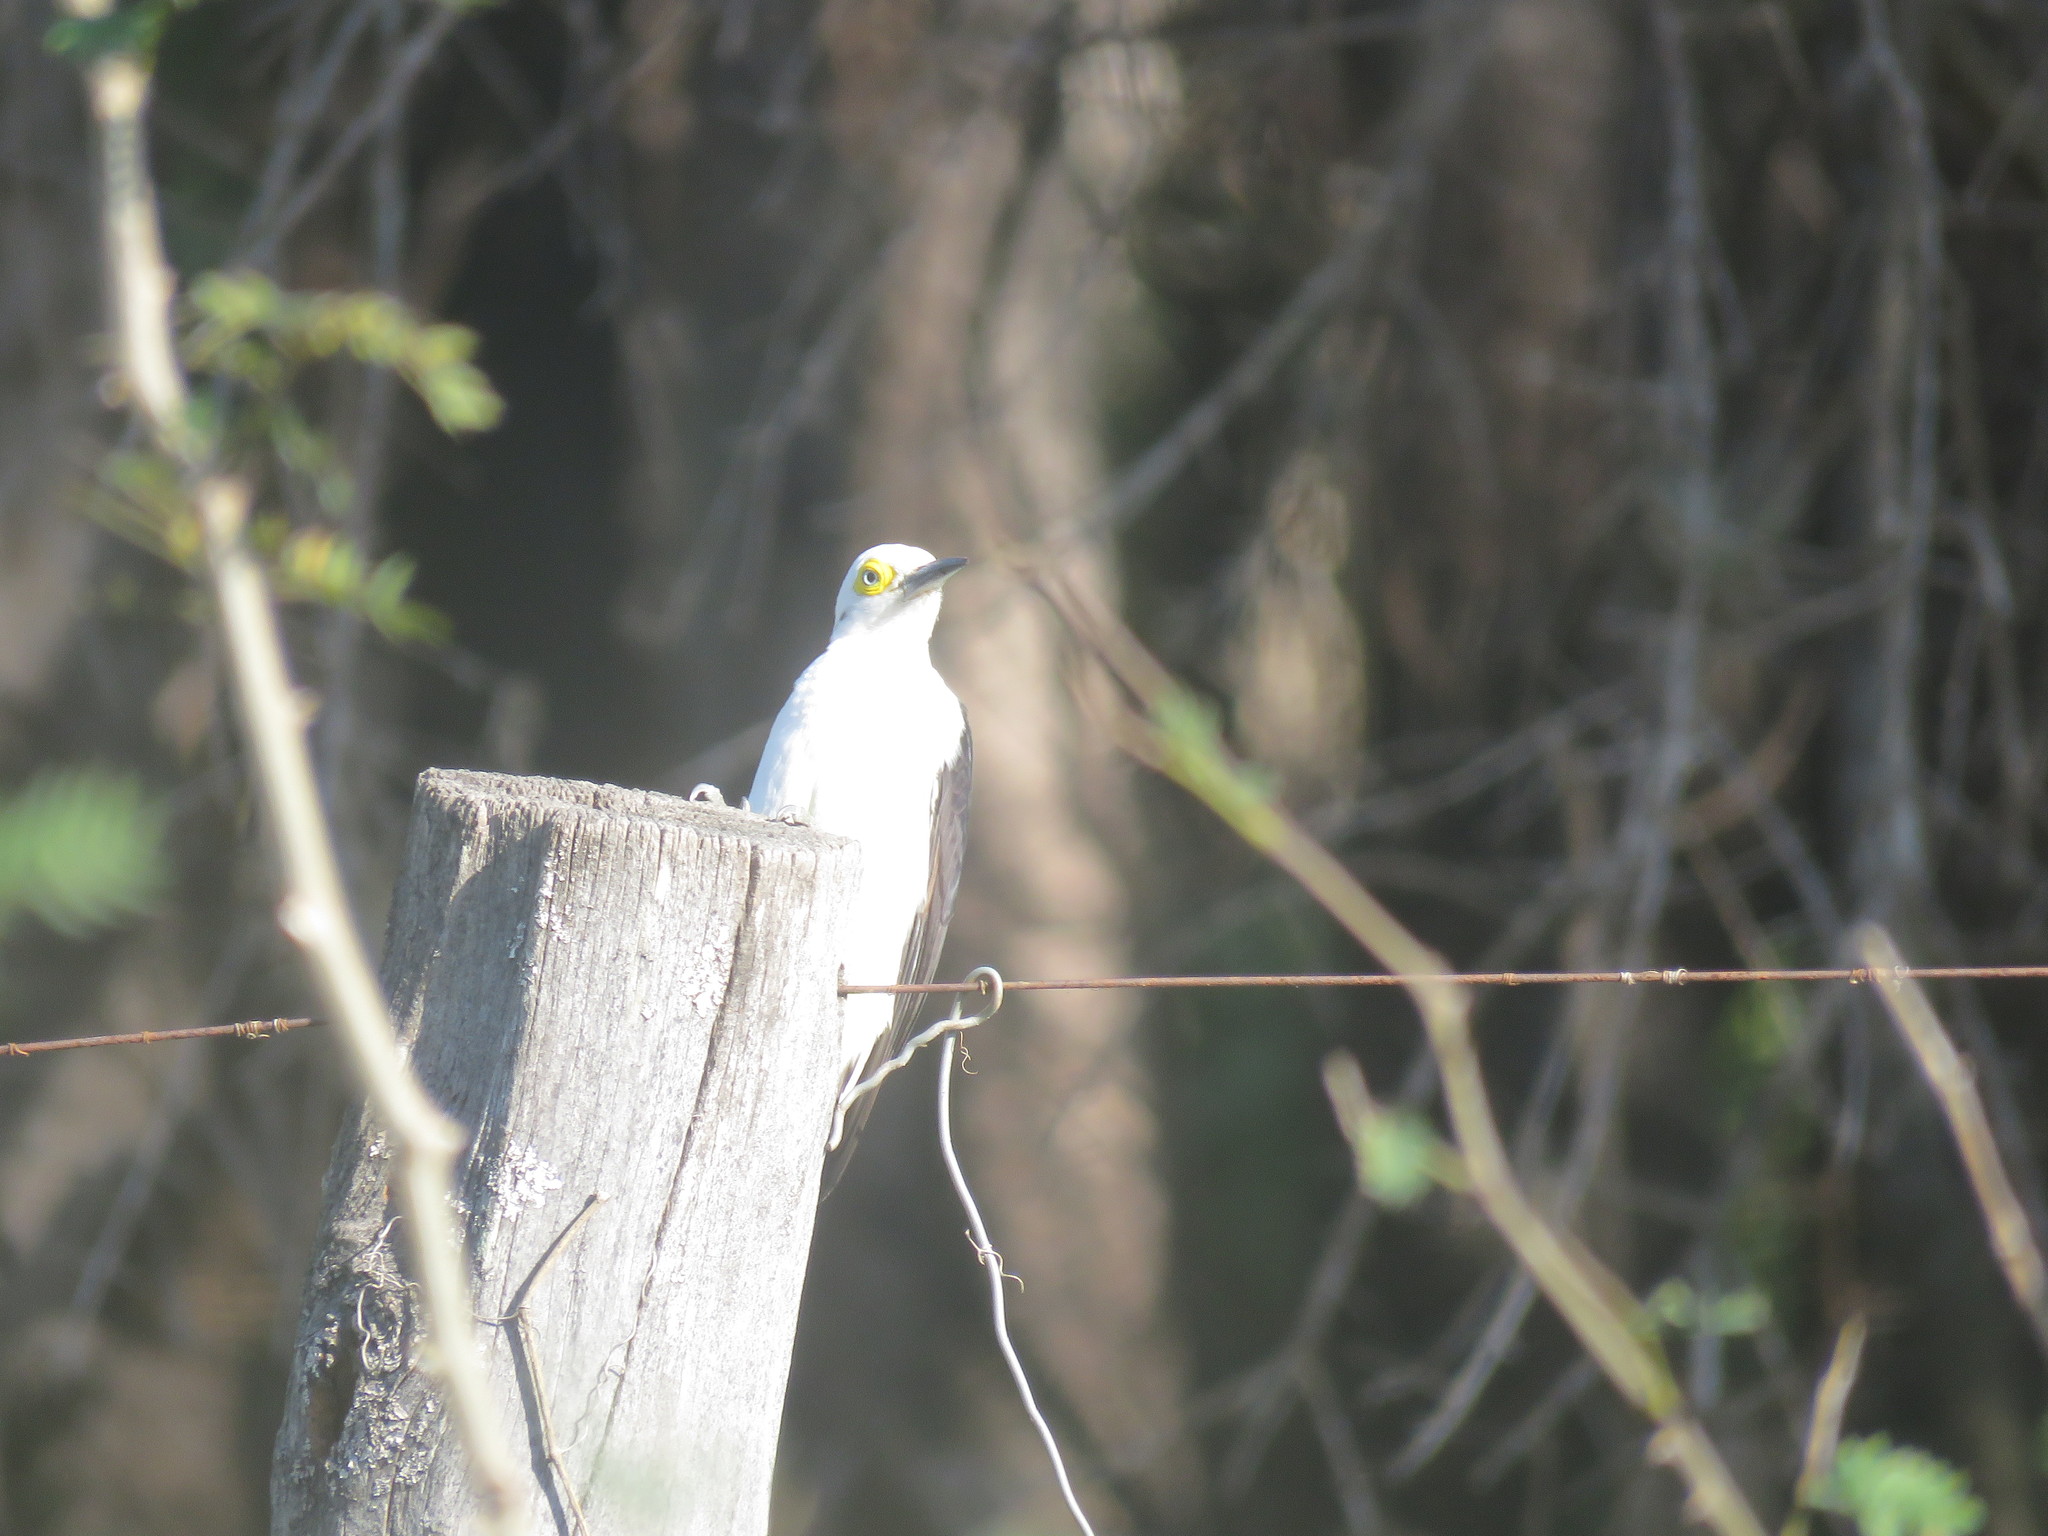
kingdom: Animalia
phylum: Chordata
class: Aves
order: Piciformes
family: Picidae
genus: Melanerpes
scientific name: Melanerpes candidus
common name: White woodpecker
